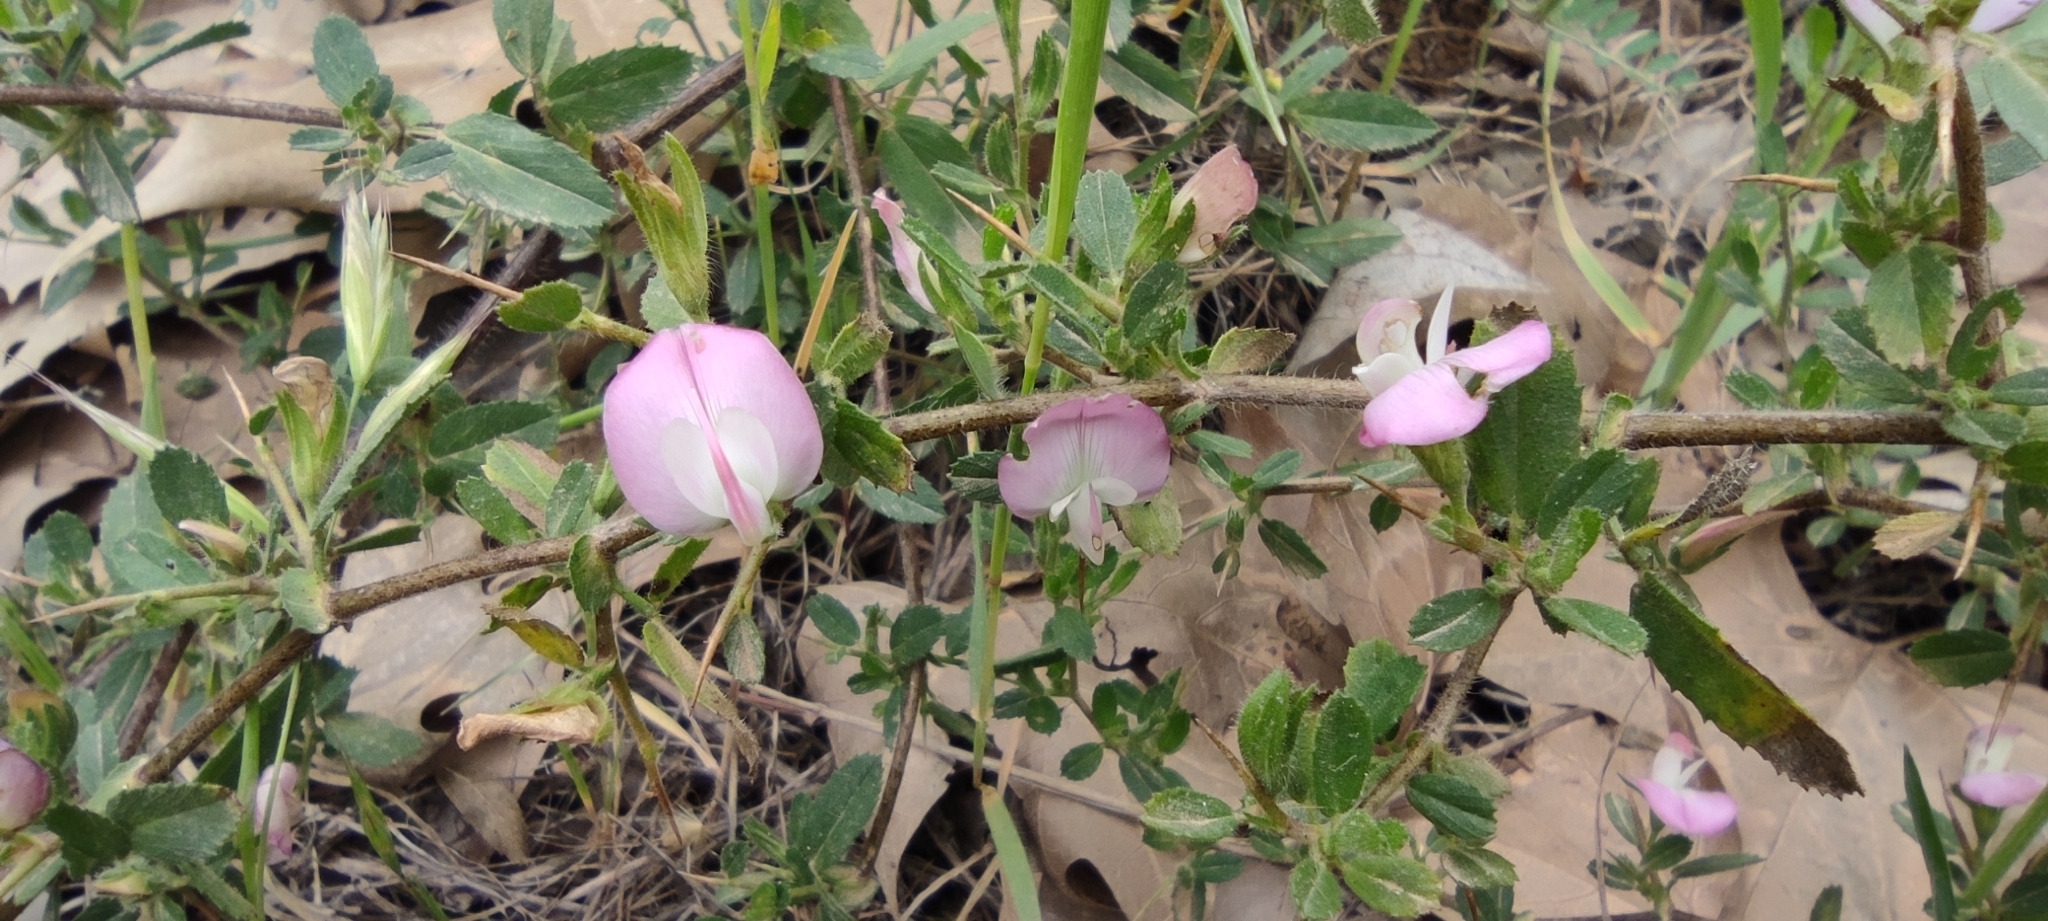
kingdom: Plantae
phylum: Tracheophyta
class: Magnoliopsida
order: Fabales
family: Fabaceae
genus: Ononis
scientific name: Ononis spinosa
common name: Spiny restharrow
